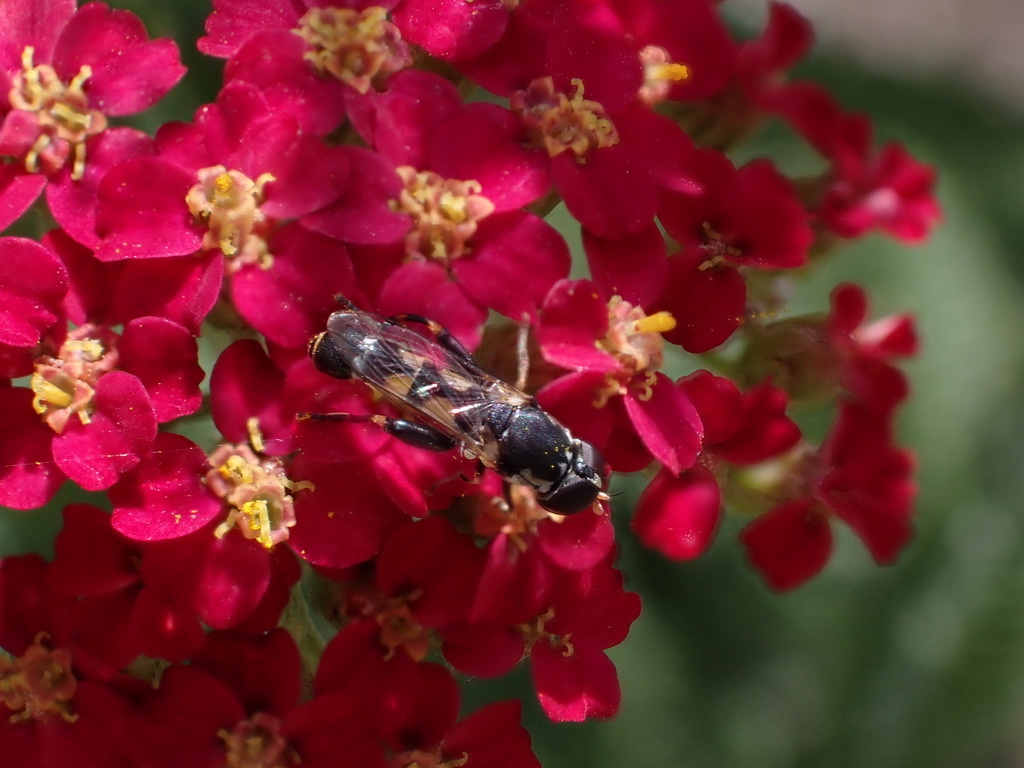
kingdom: Animalia
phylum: Arthropoda
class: Insecta
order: Diptera
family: Syrphidae
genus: Syritta
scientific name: Syritta pipiens
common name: Hover fly
